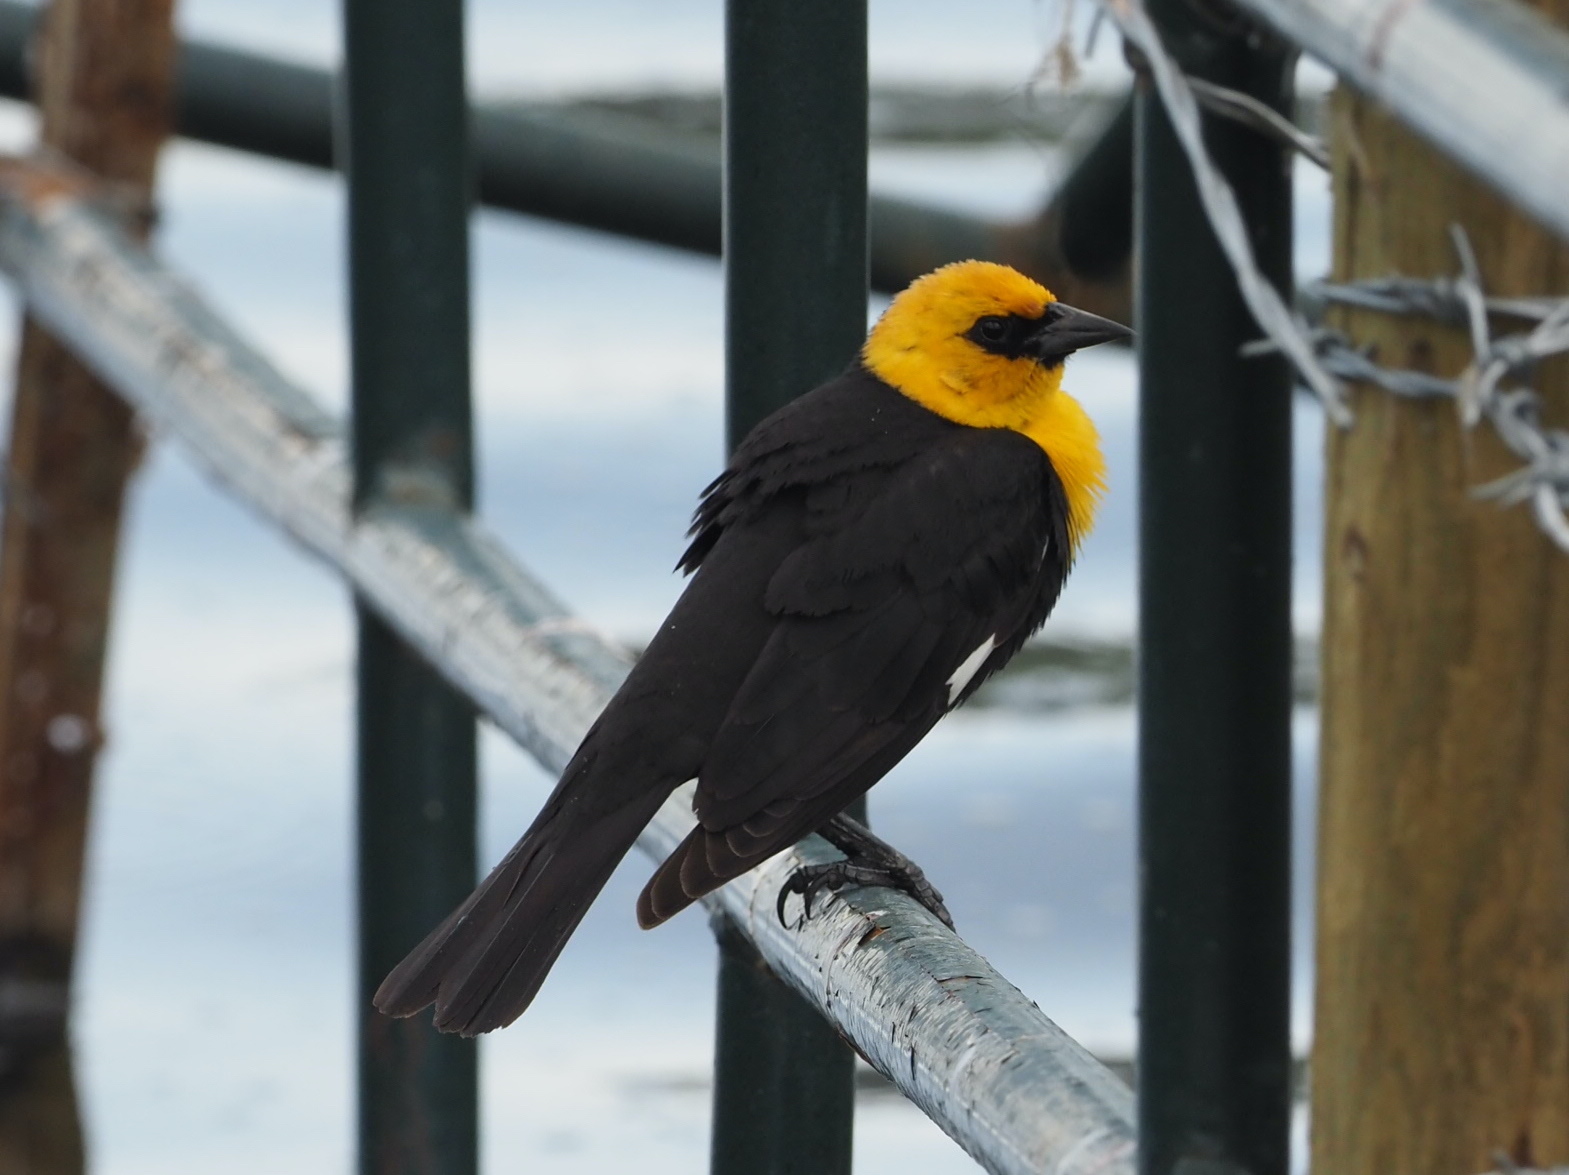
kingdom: Animalia
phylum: Chordata
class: Aves
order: Passeriformes
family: Icteridae
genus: Xanthocephalus
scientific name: Xanthocephalus xanthocephalus
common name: Yellow-headed blackbird
